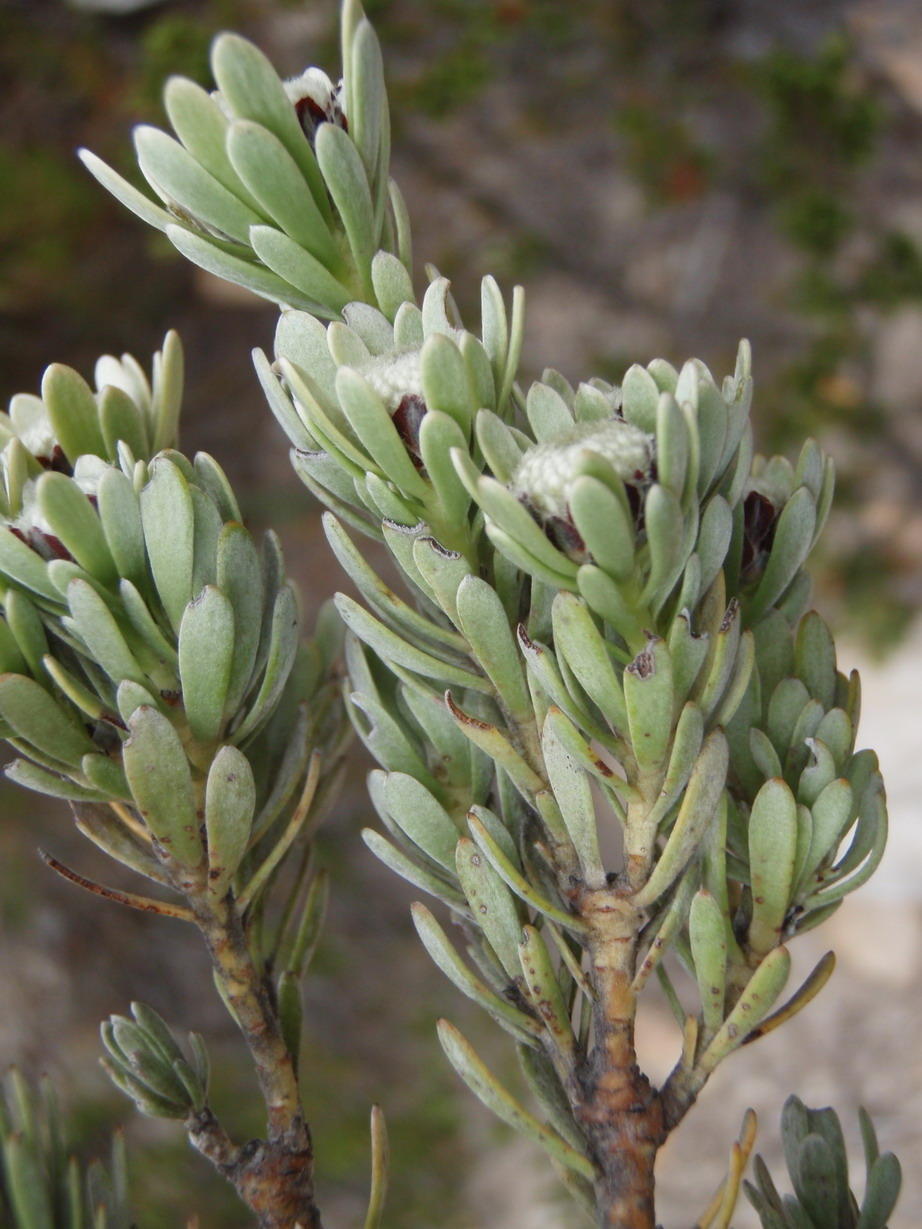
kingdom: Plantae
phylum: Tracheophyta
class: Magnoliopsida
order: Proteales
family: Proteaceae
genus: Leucadendron
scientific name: Leucadendron singulare
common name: Kammanassie conebush
